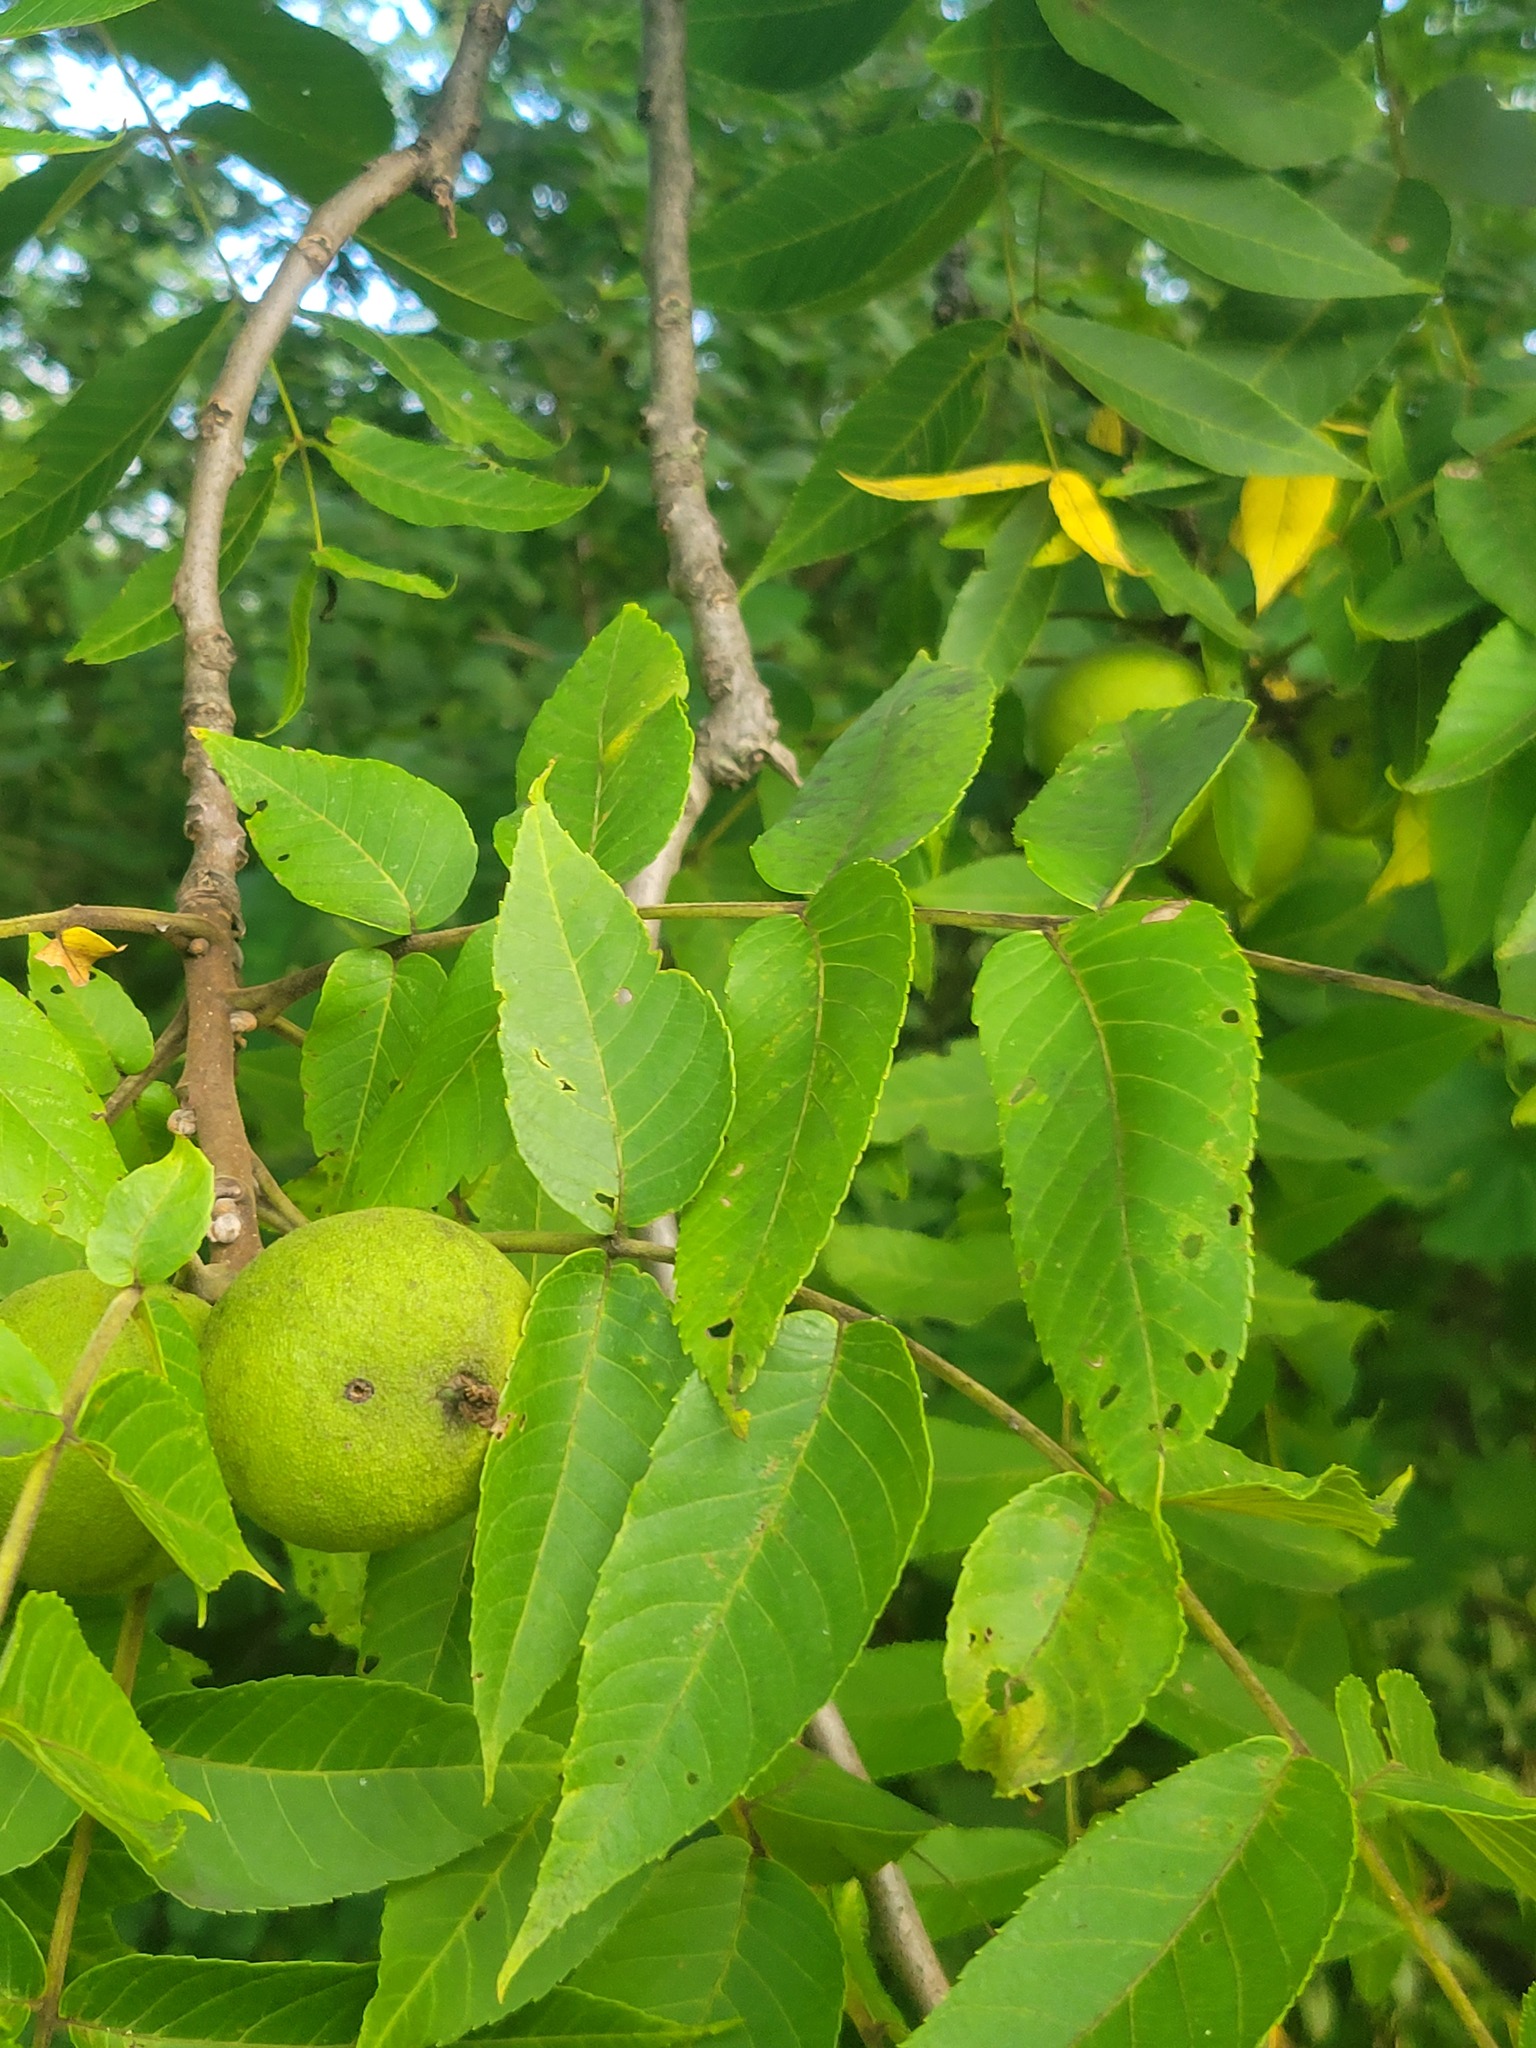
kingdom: Plantae
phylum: Tracheophyta
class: Magnoliopsida
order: Fagales
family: Juglandaceae
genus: Juglans
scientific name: Juglans nigra
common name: Black walnut
